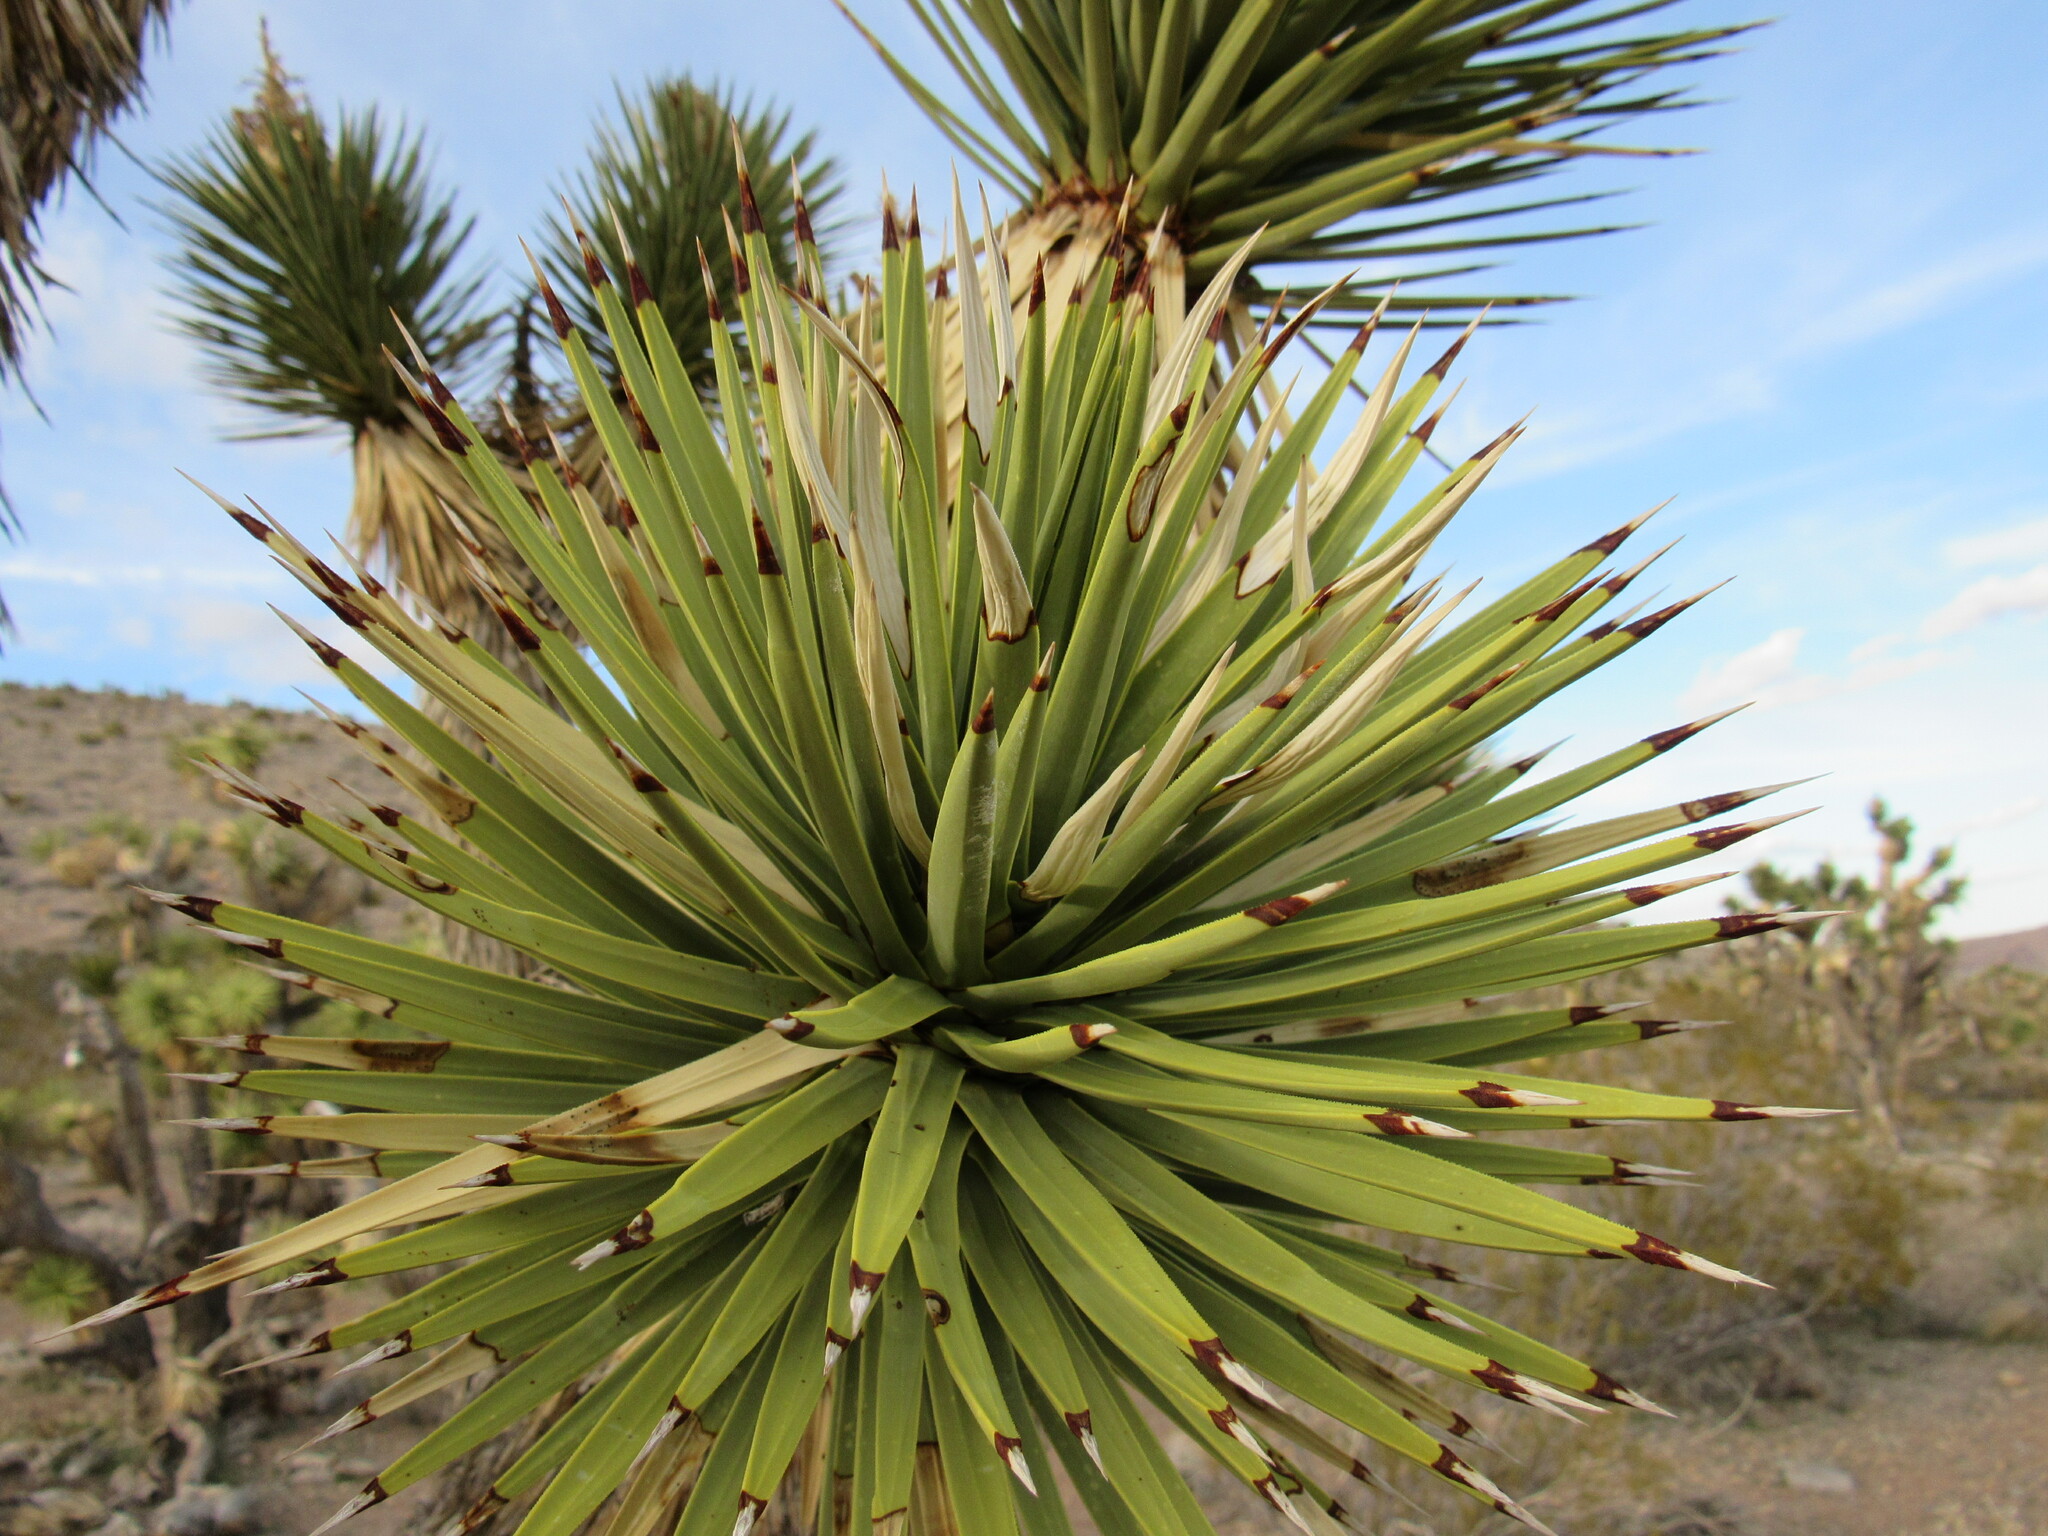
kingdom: Plantae
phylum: Tracheophyta
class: Liliopsida
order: Asparagales
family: Asparagaceae
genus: Yucca
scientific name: Yucca brevifolia
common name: Joshua tree
